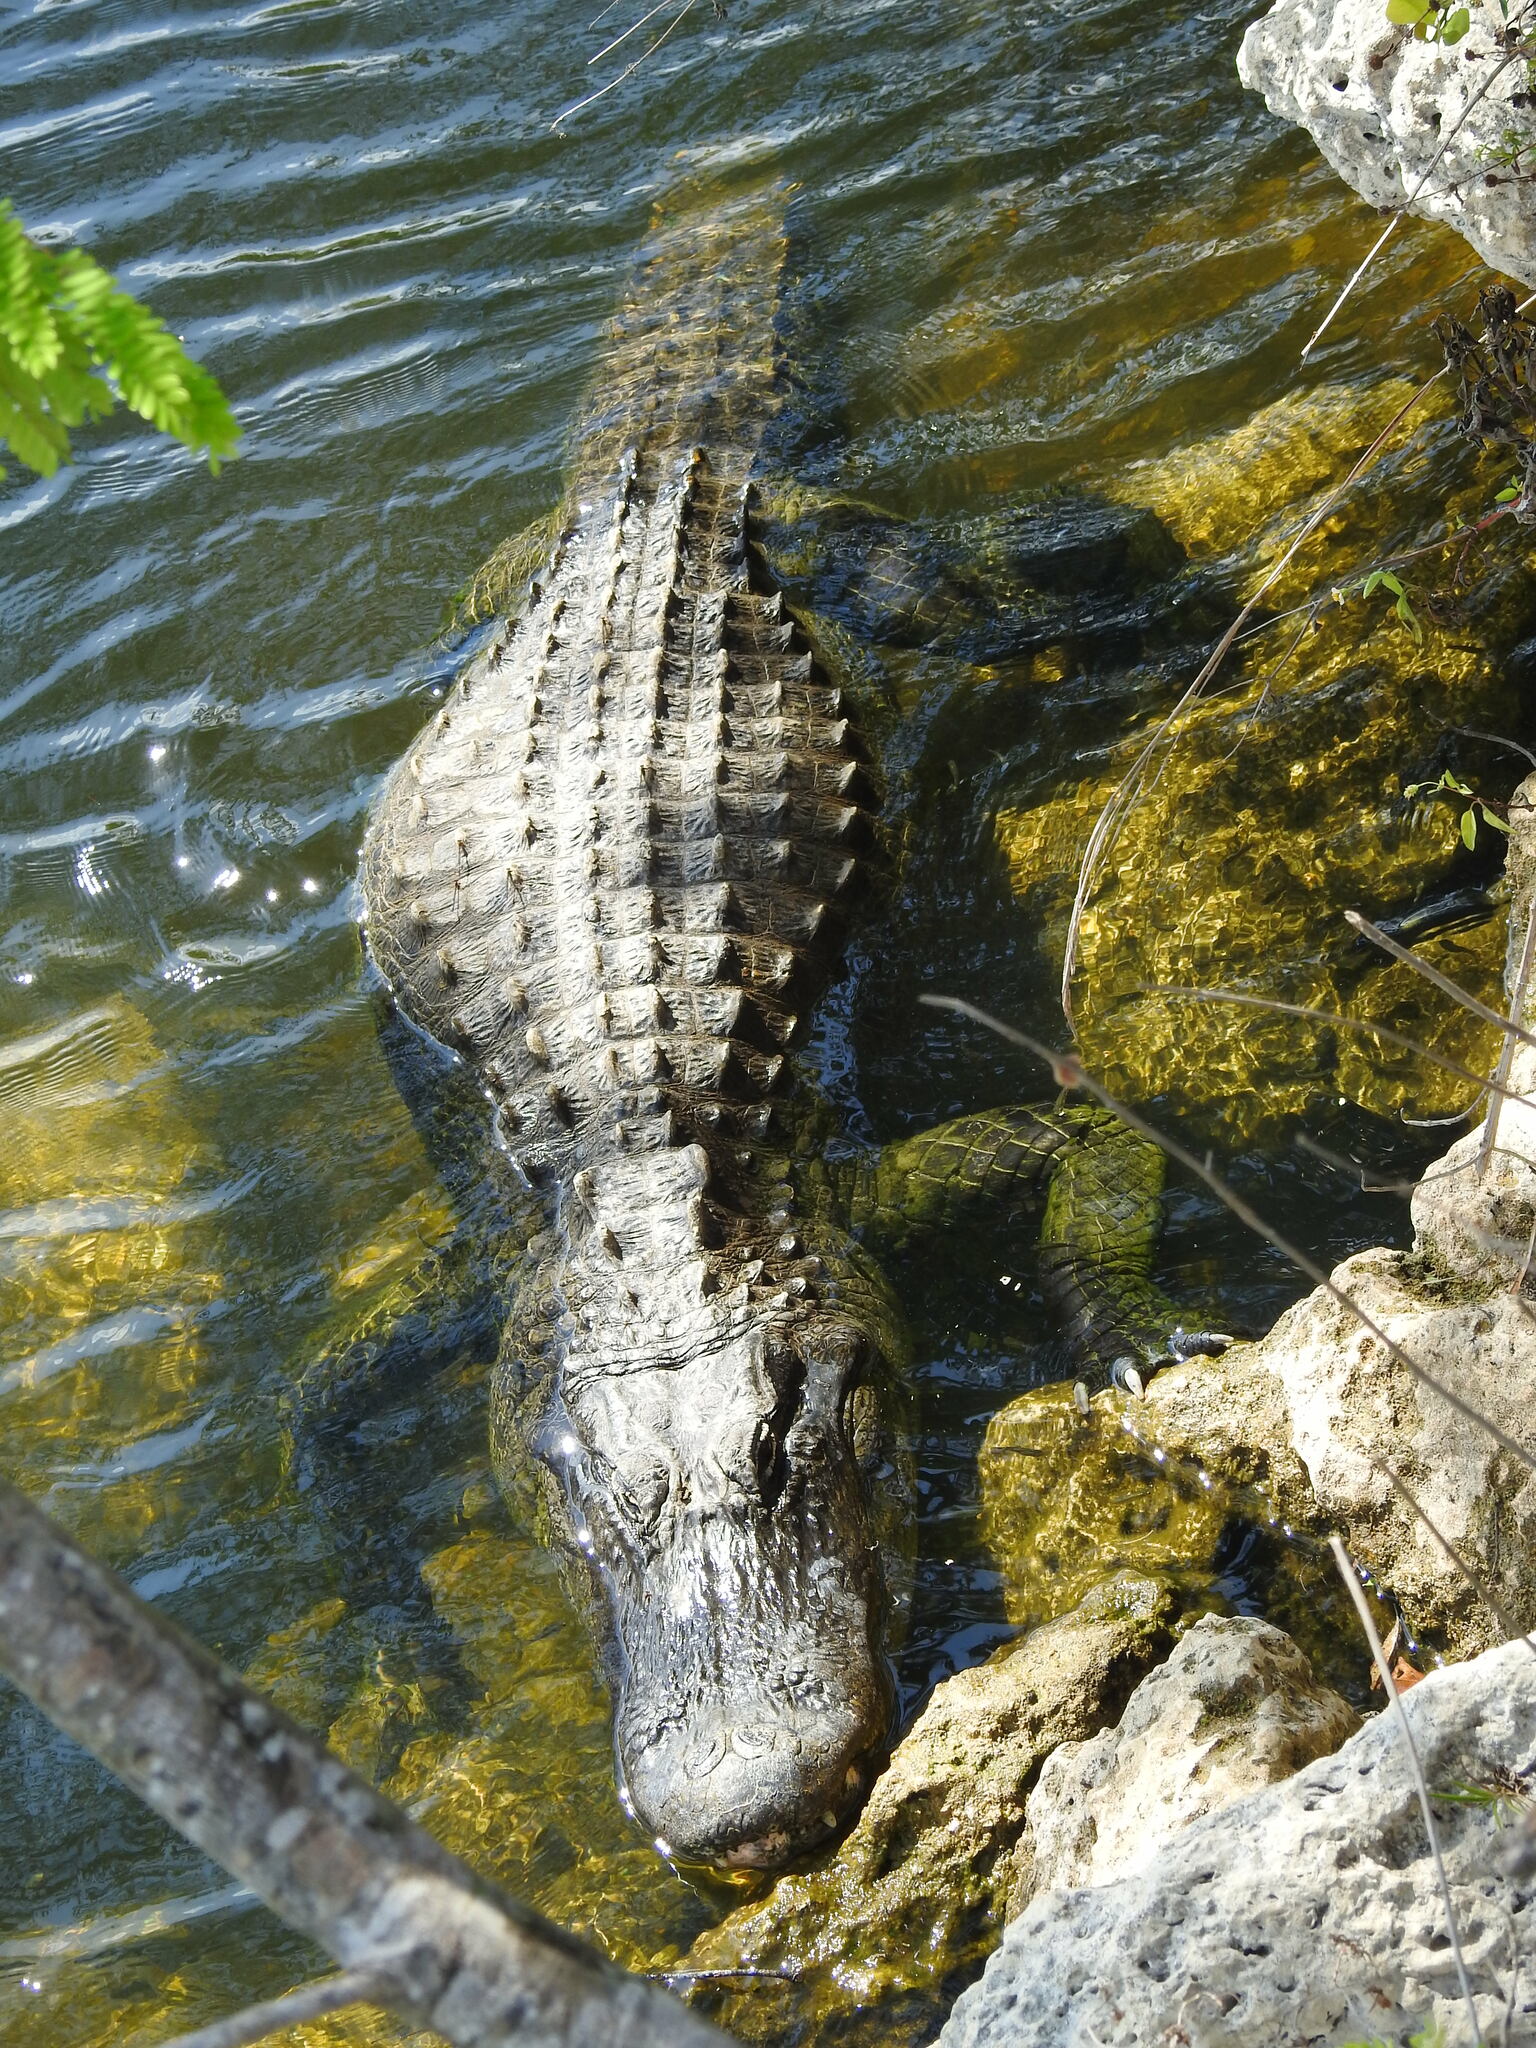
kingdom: Animalia
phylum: Chordata
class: Crocodylia
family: Alligatoridae
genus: Alligator
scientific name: Alligator mississippiensis
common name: American alligator
